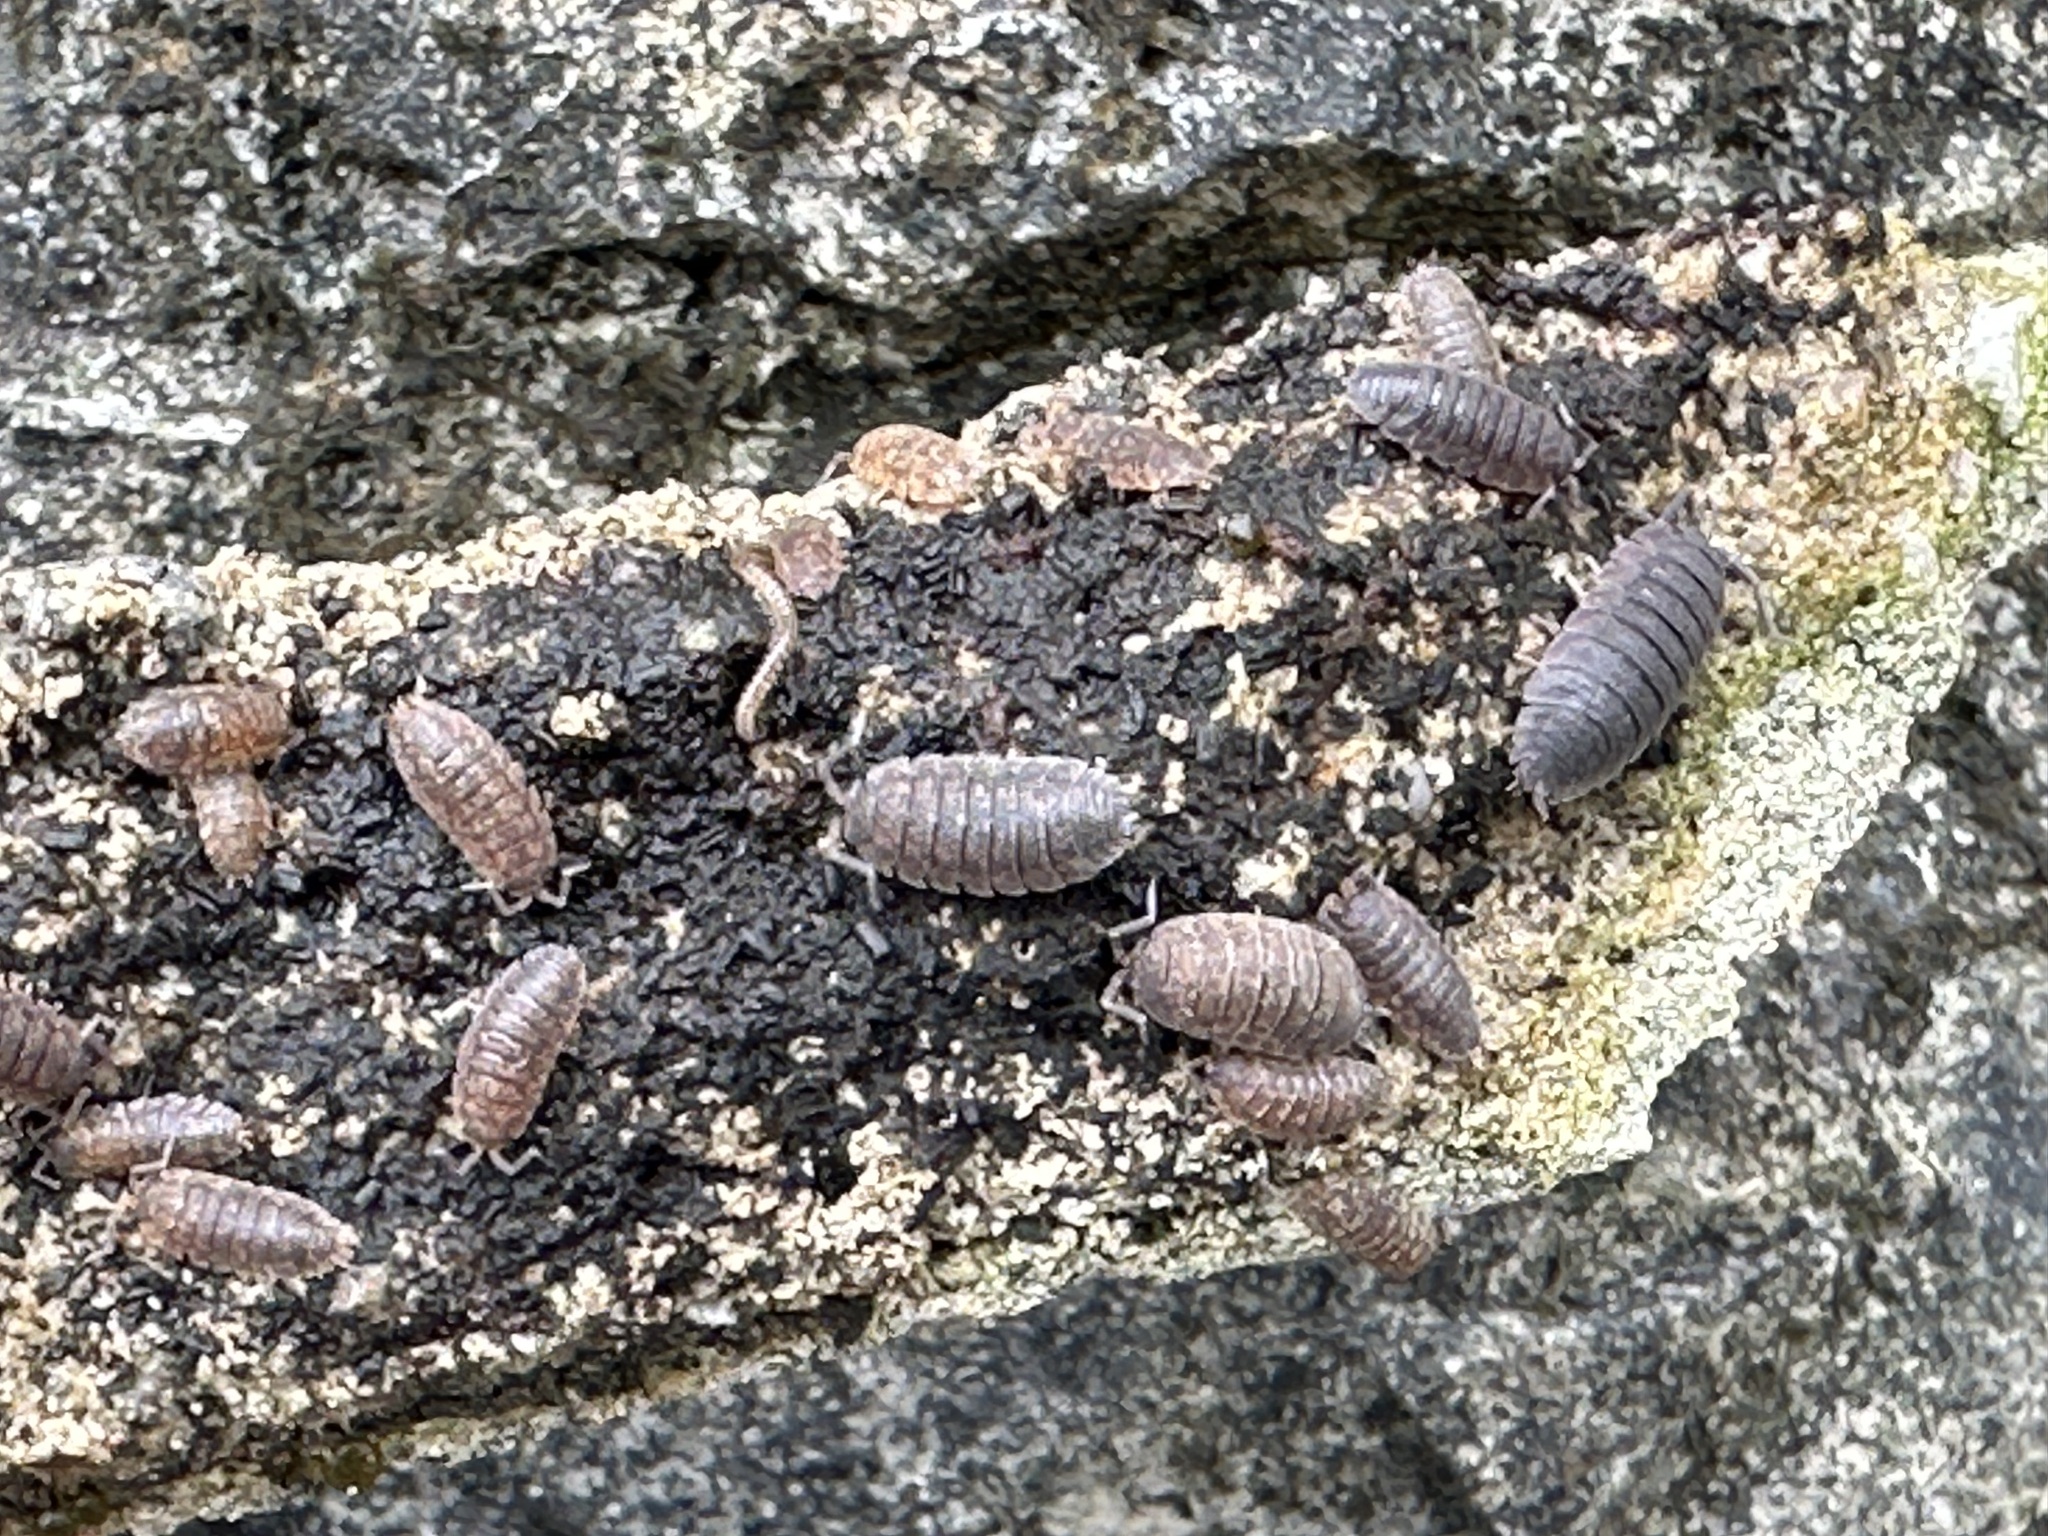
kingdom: Animalia
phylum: Arthropoda
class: Malacostraca
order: Isopoda
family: Porcellionidae
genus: Porcellio
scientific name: Porcellio scaber
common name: Common rough woodlouse
